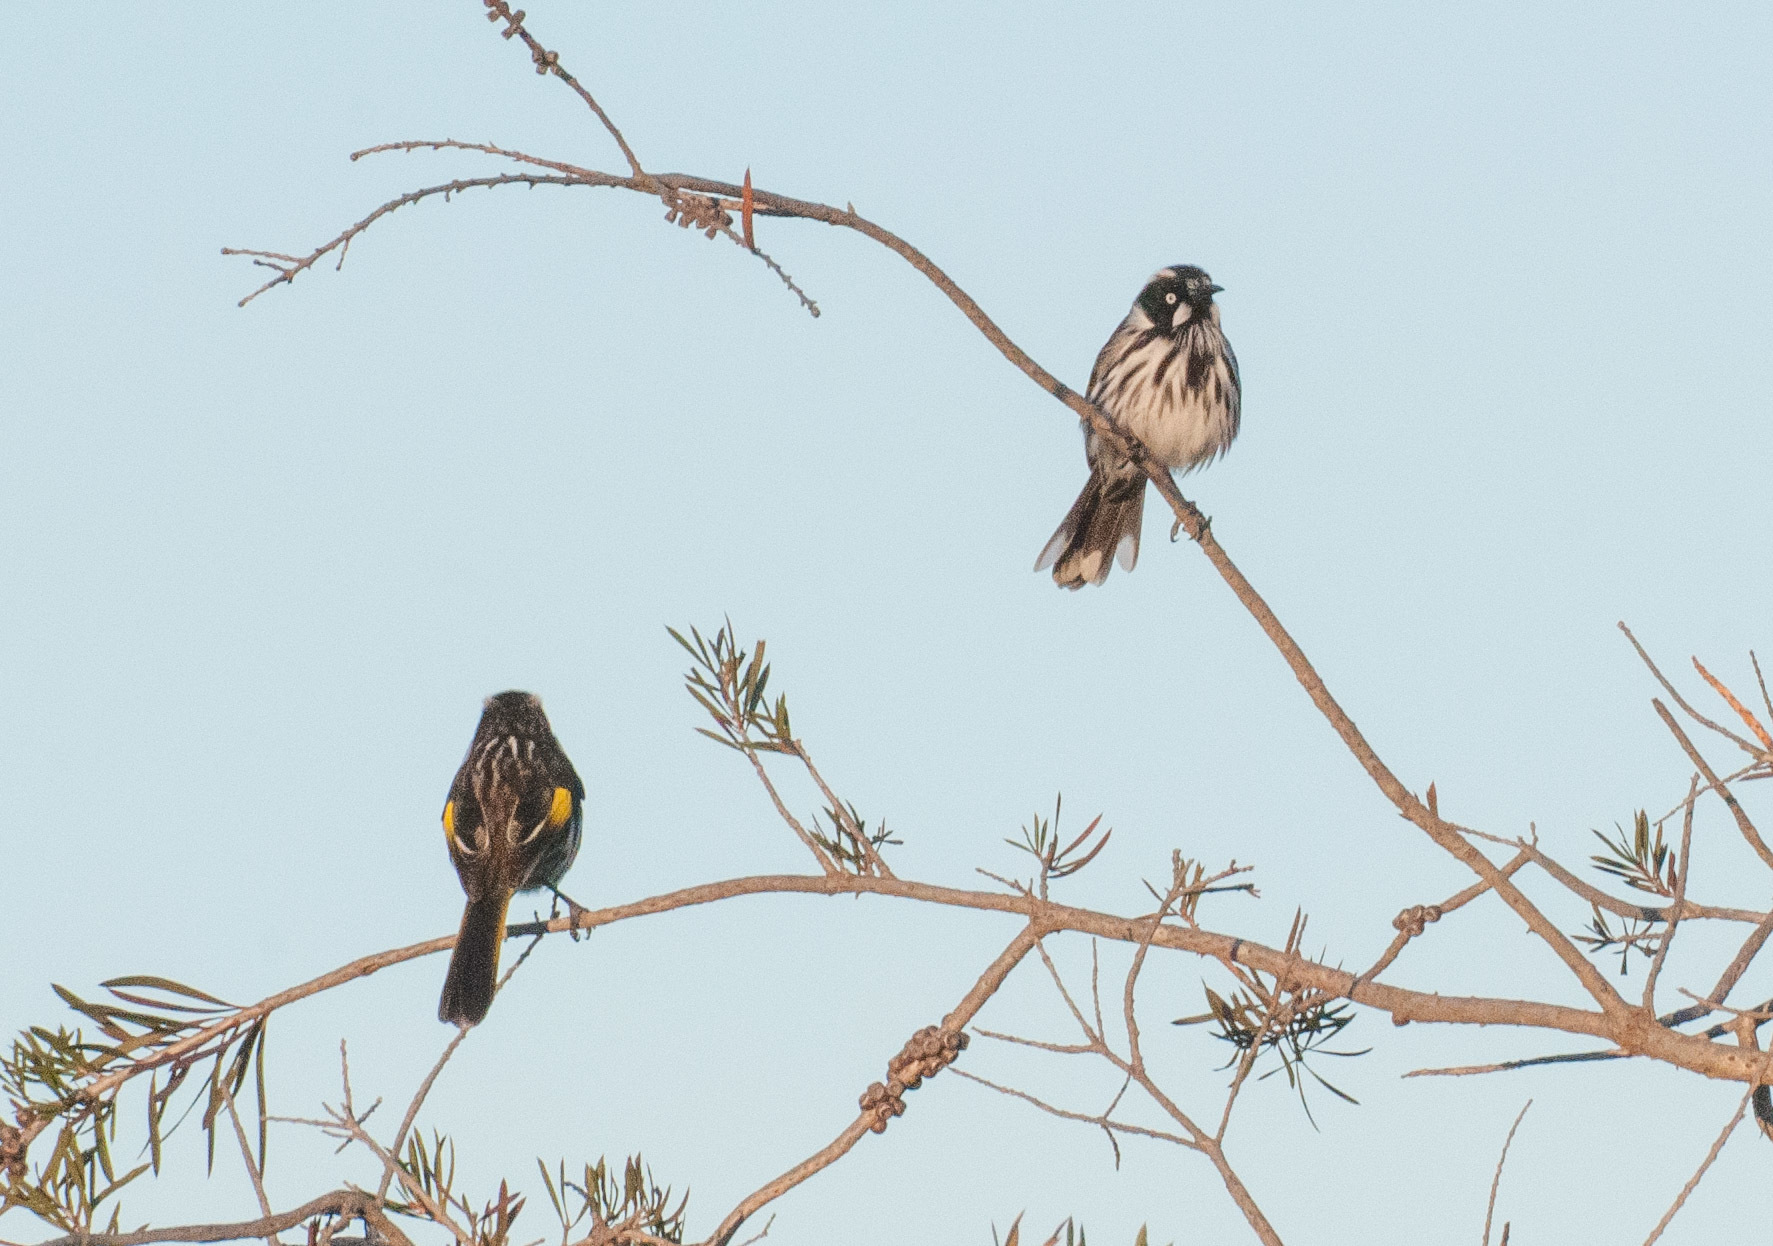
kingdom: Animalia
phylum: Chordata
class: Aves
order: Passeriformes
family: Meliphagidae
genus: Phylidonyris
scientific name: Phylidonyris novaehollandiae
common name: New holland honeyeater
